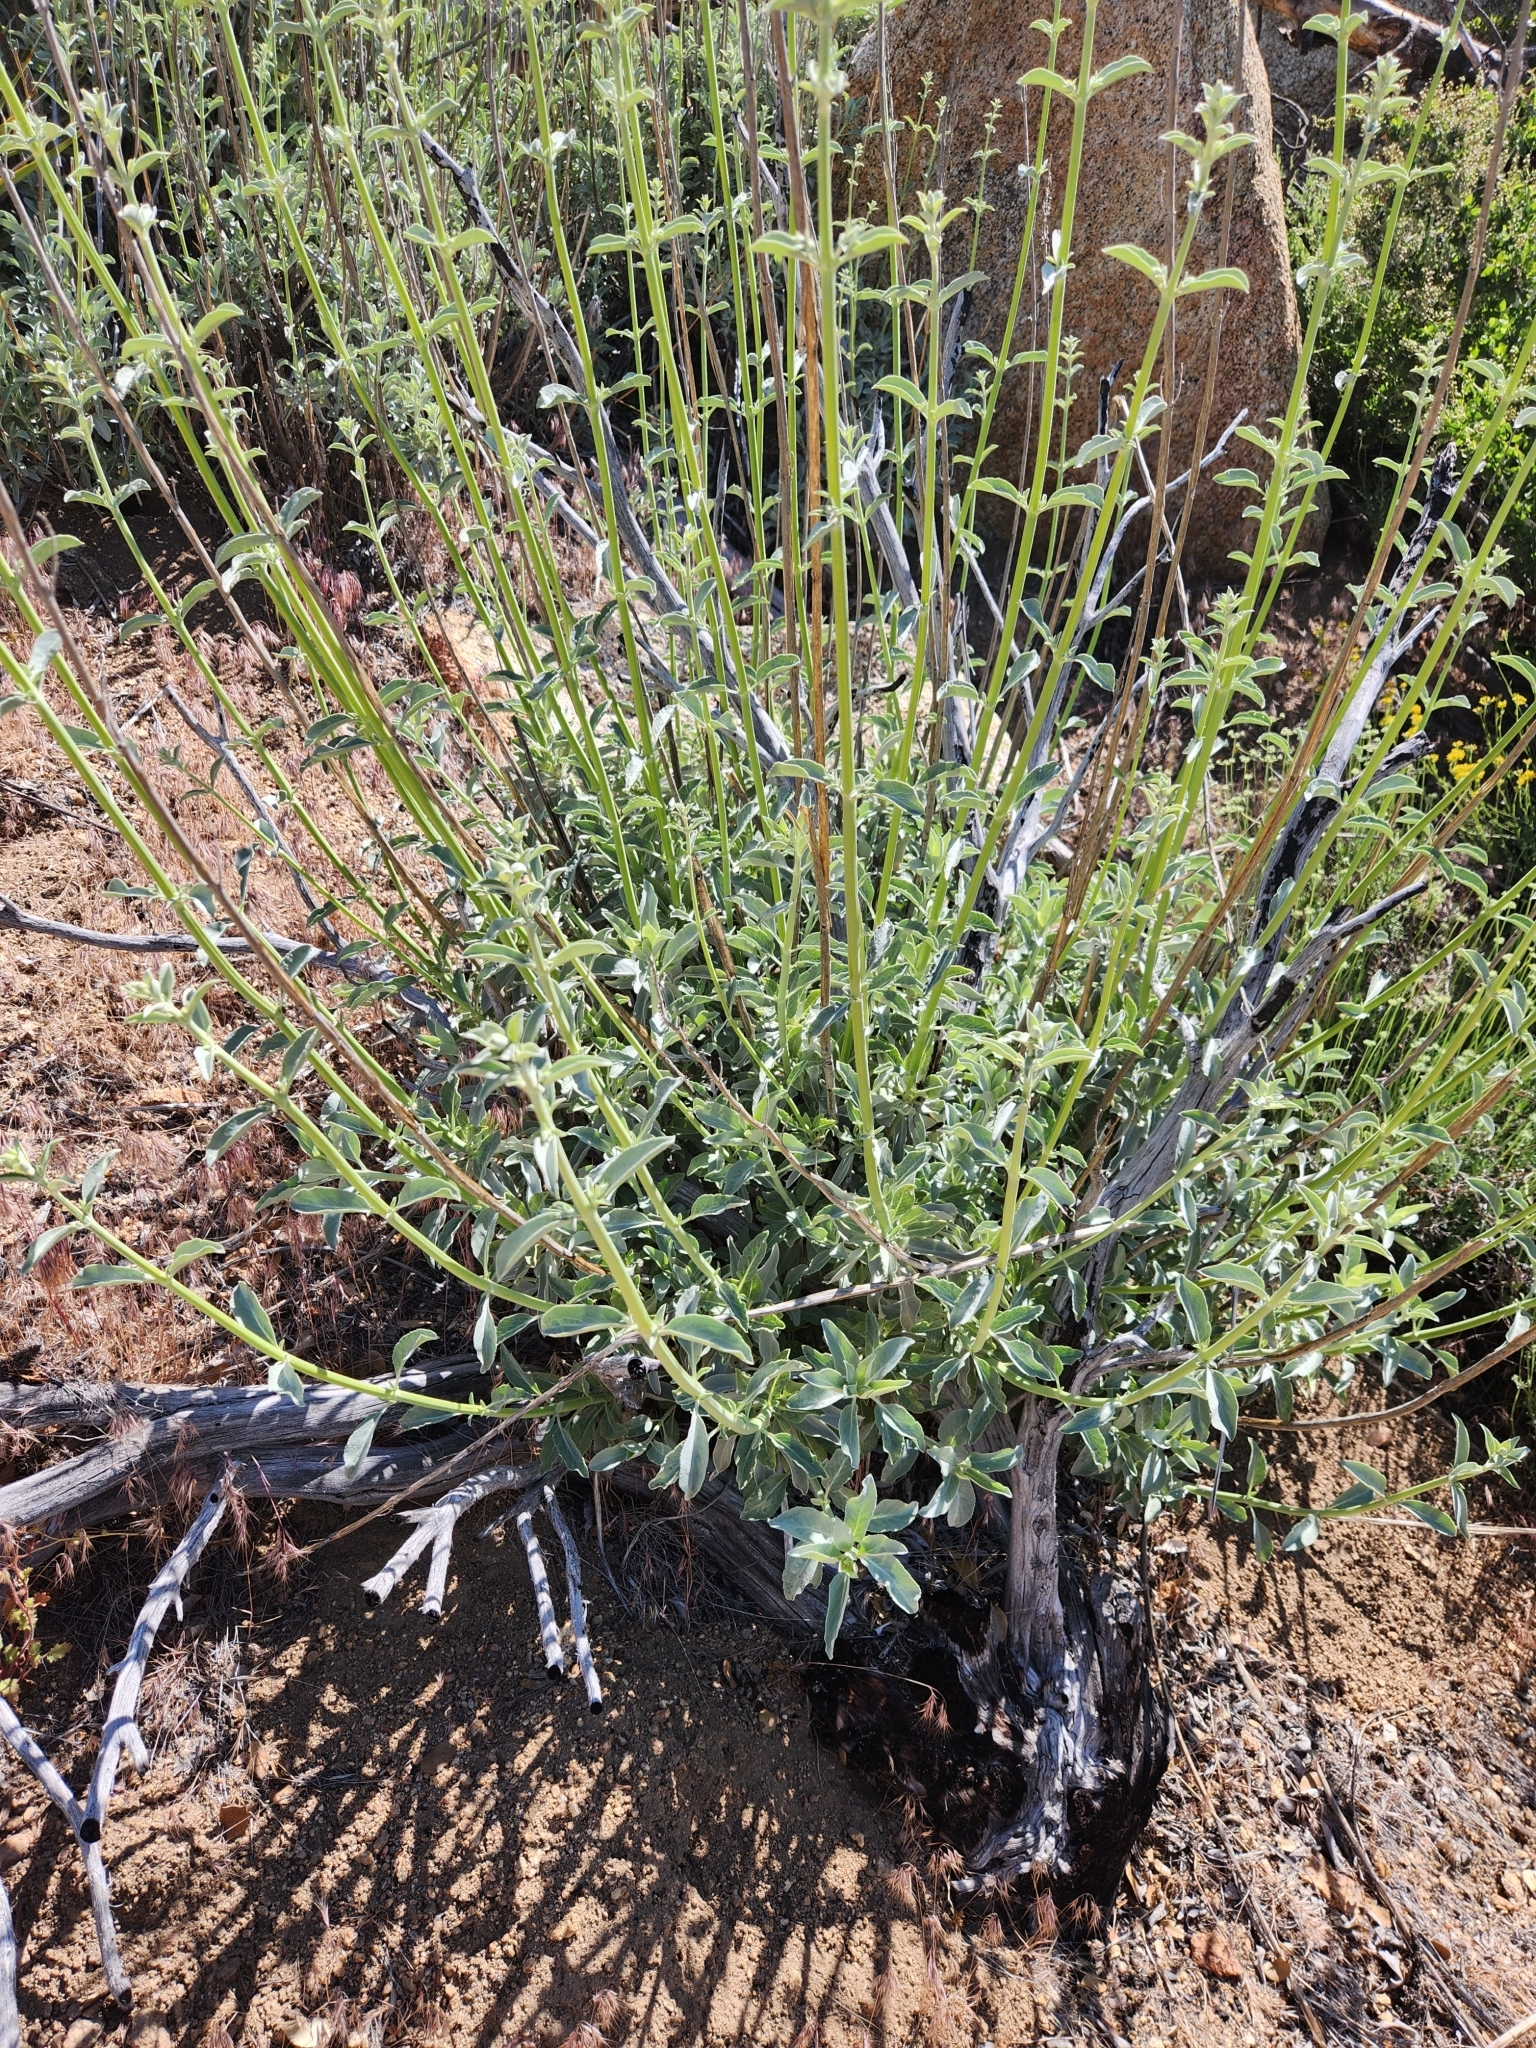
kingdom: Plantae
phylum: Tracheophyta
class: Magnoliopsida
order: Lamiales
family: Lamiaceae
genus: Salvia
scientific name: Salvia apiana
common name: White sage
